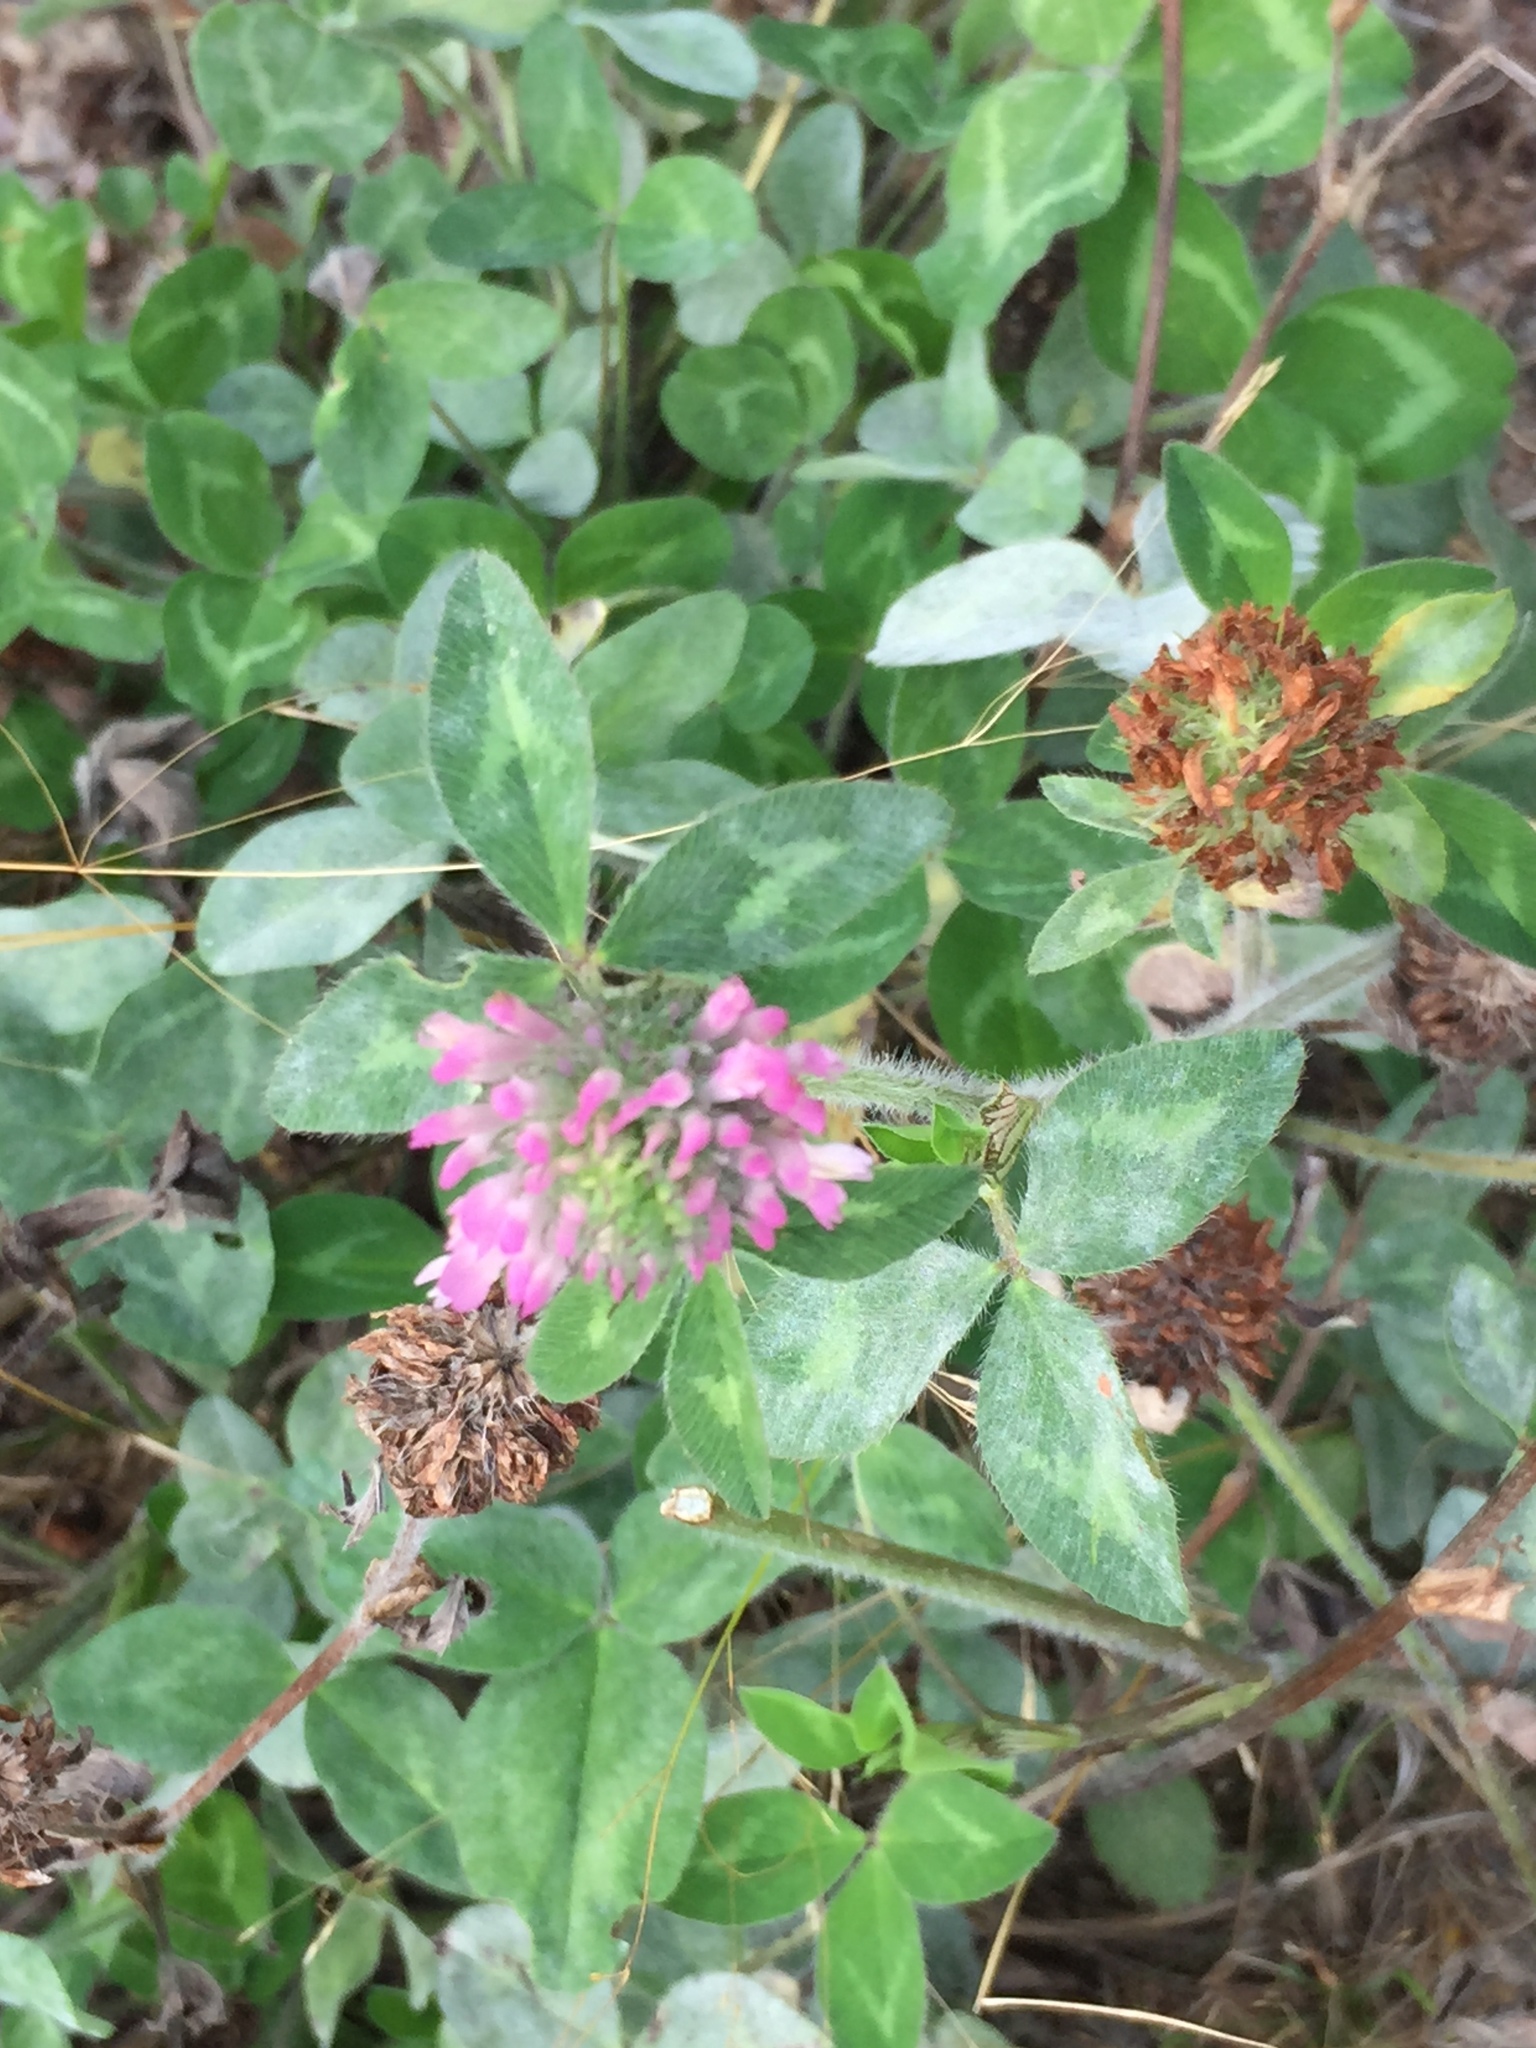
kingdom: Plantae
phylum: Tracheophyta
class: Magnoliopsida
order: Fabales
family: Fabaceae
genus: Trifolium
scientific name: Trifolium pratense
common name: Red clover
